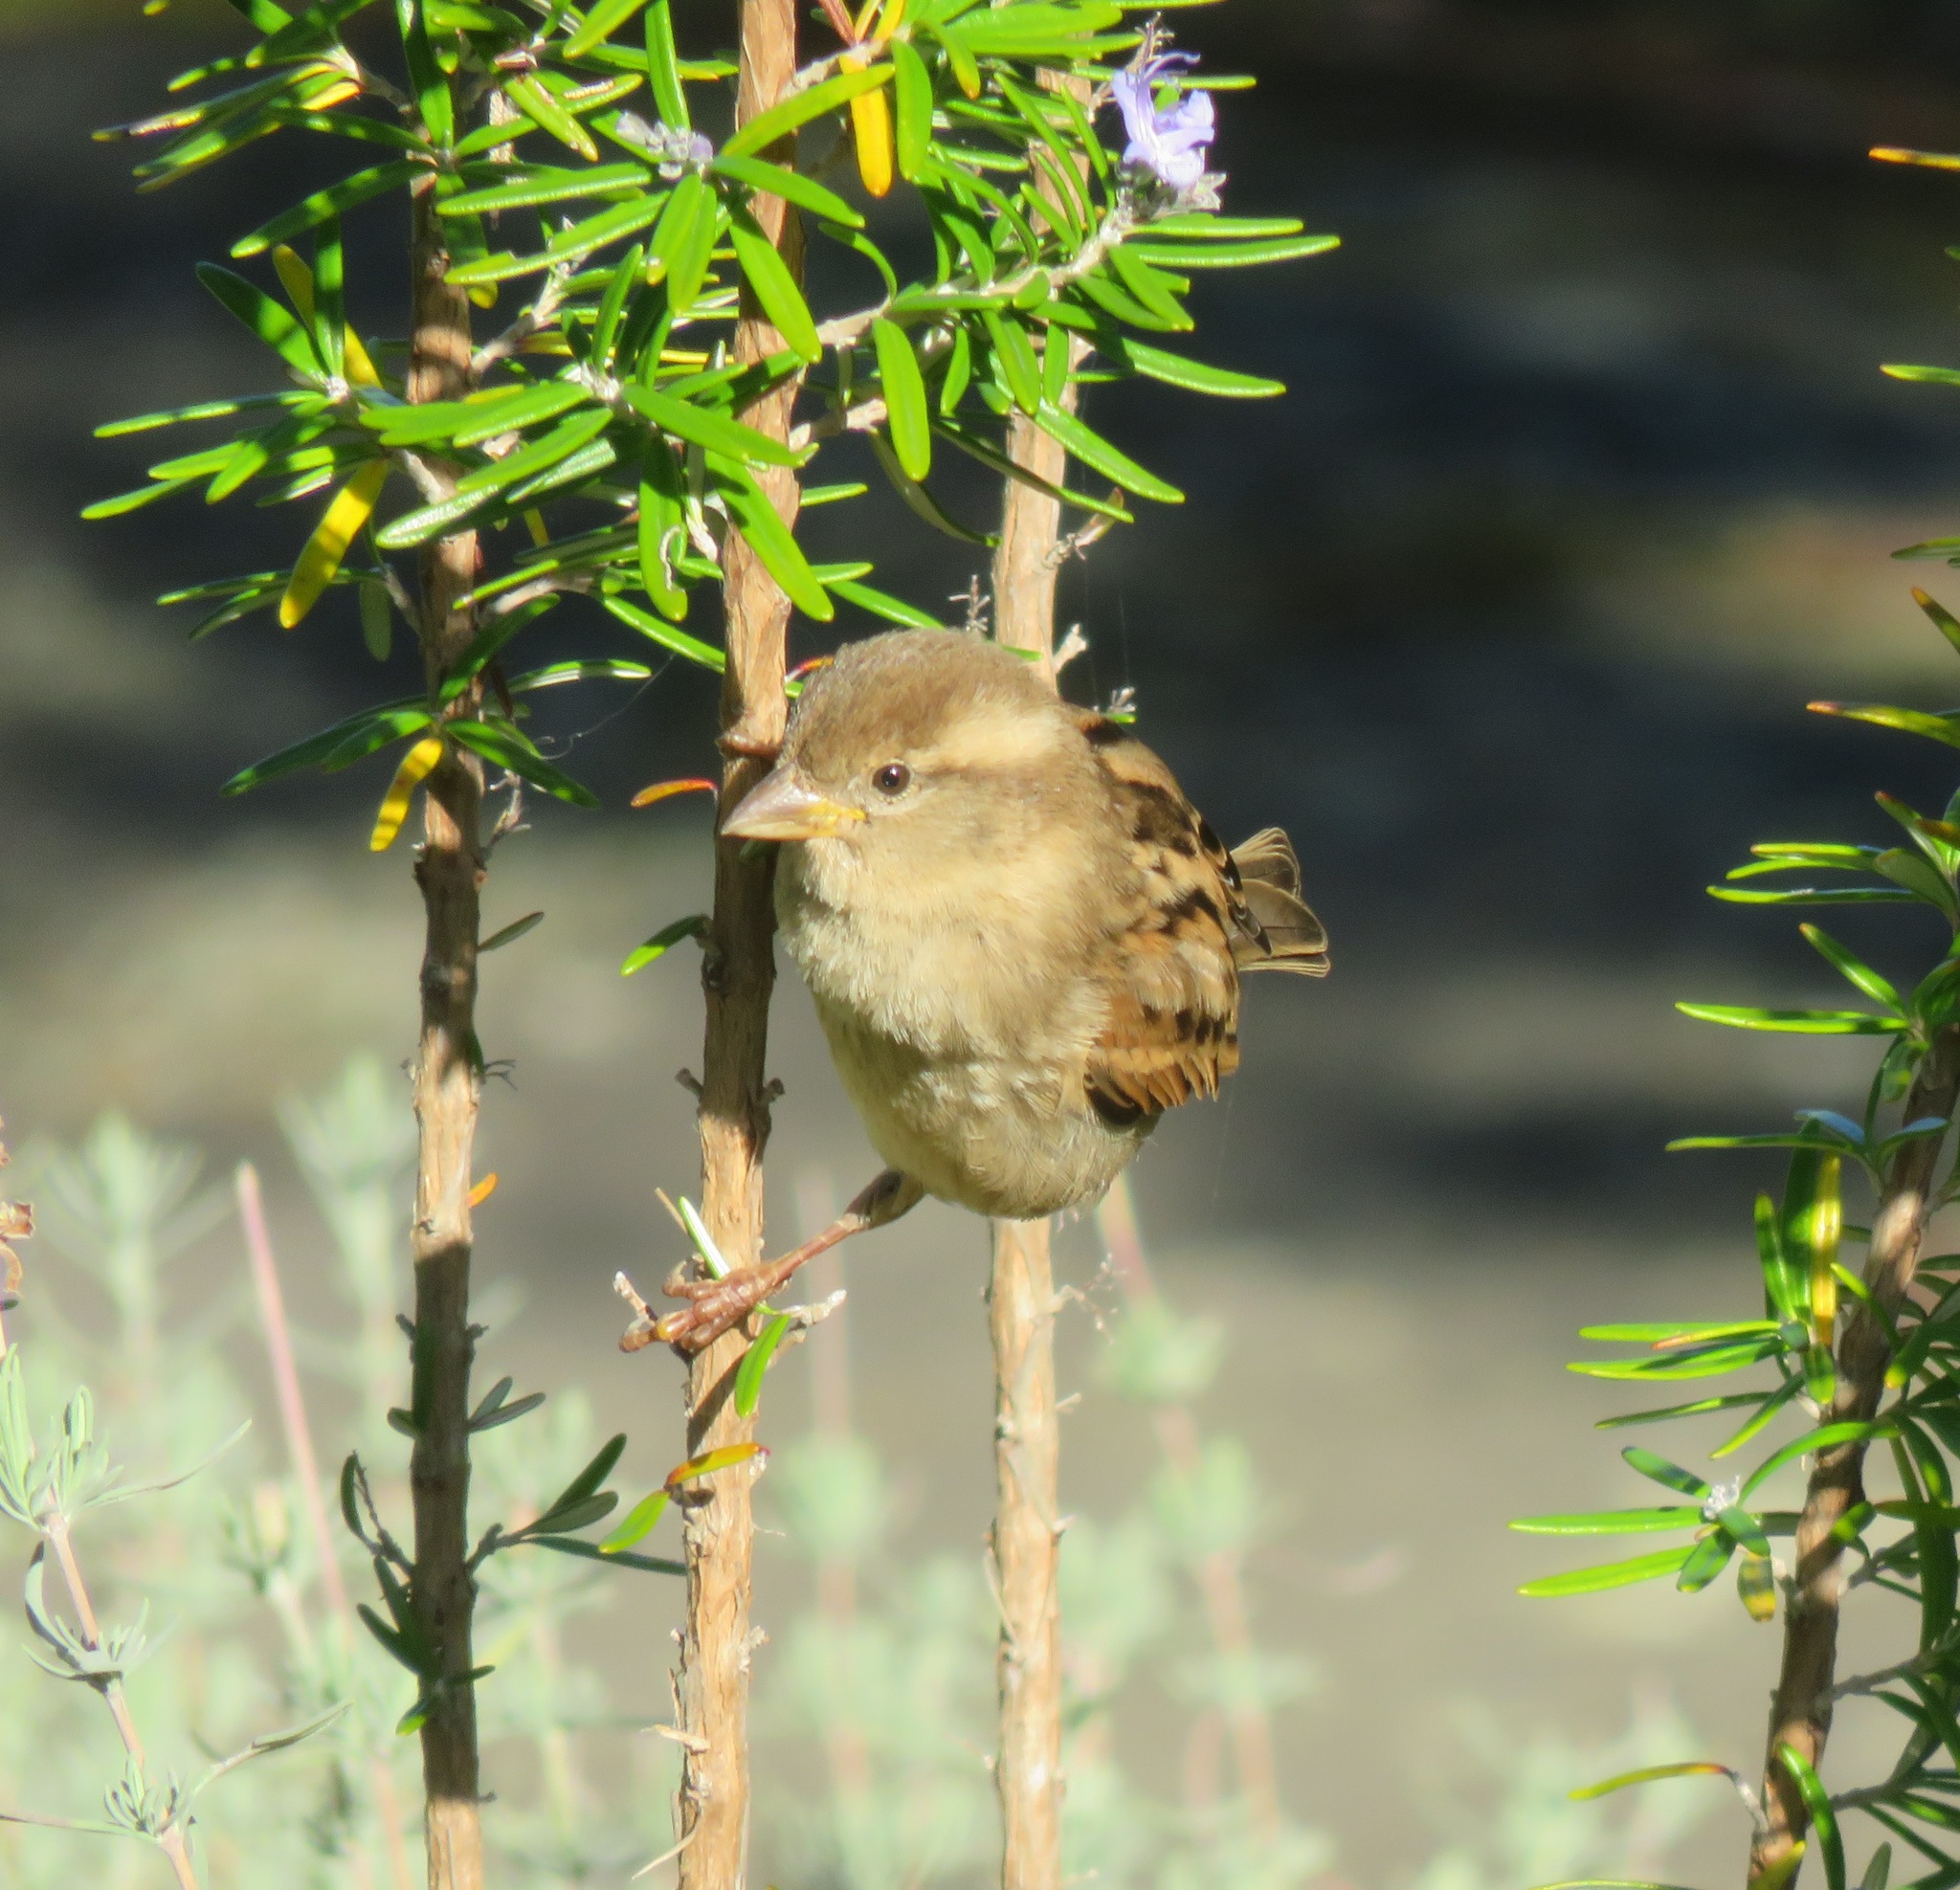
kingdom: Animalia
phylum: Chordata
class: Aves
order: Passeriformes
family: Passeridae
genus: Passer
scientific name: Passer domesticus
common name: House sparrow
